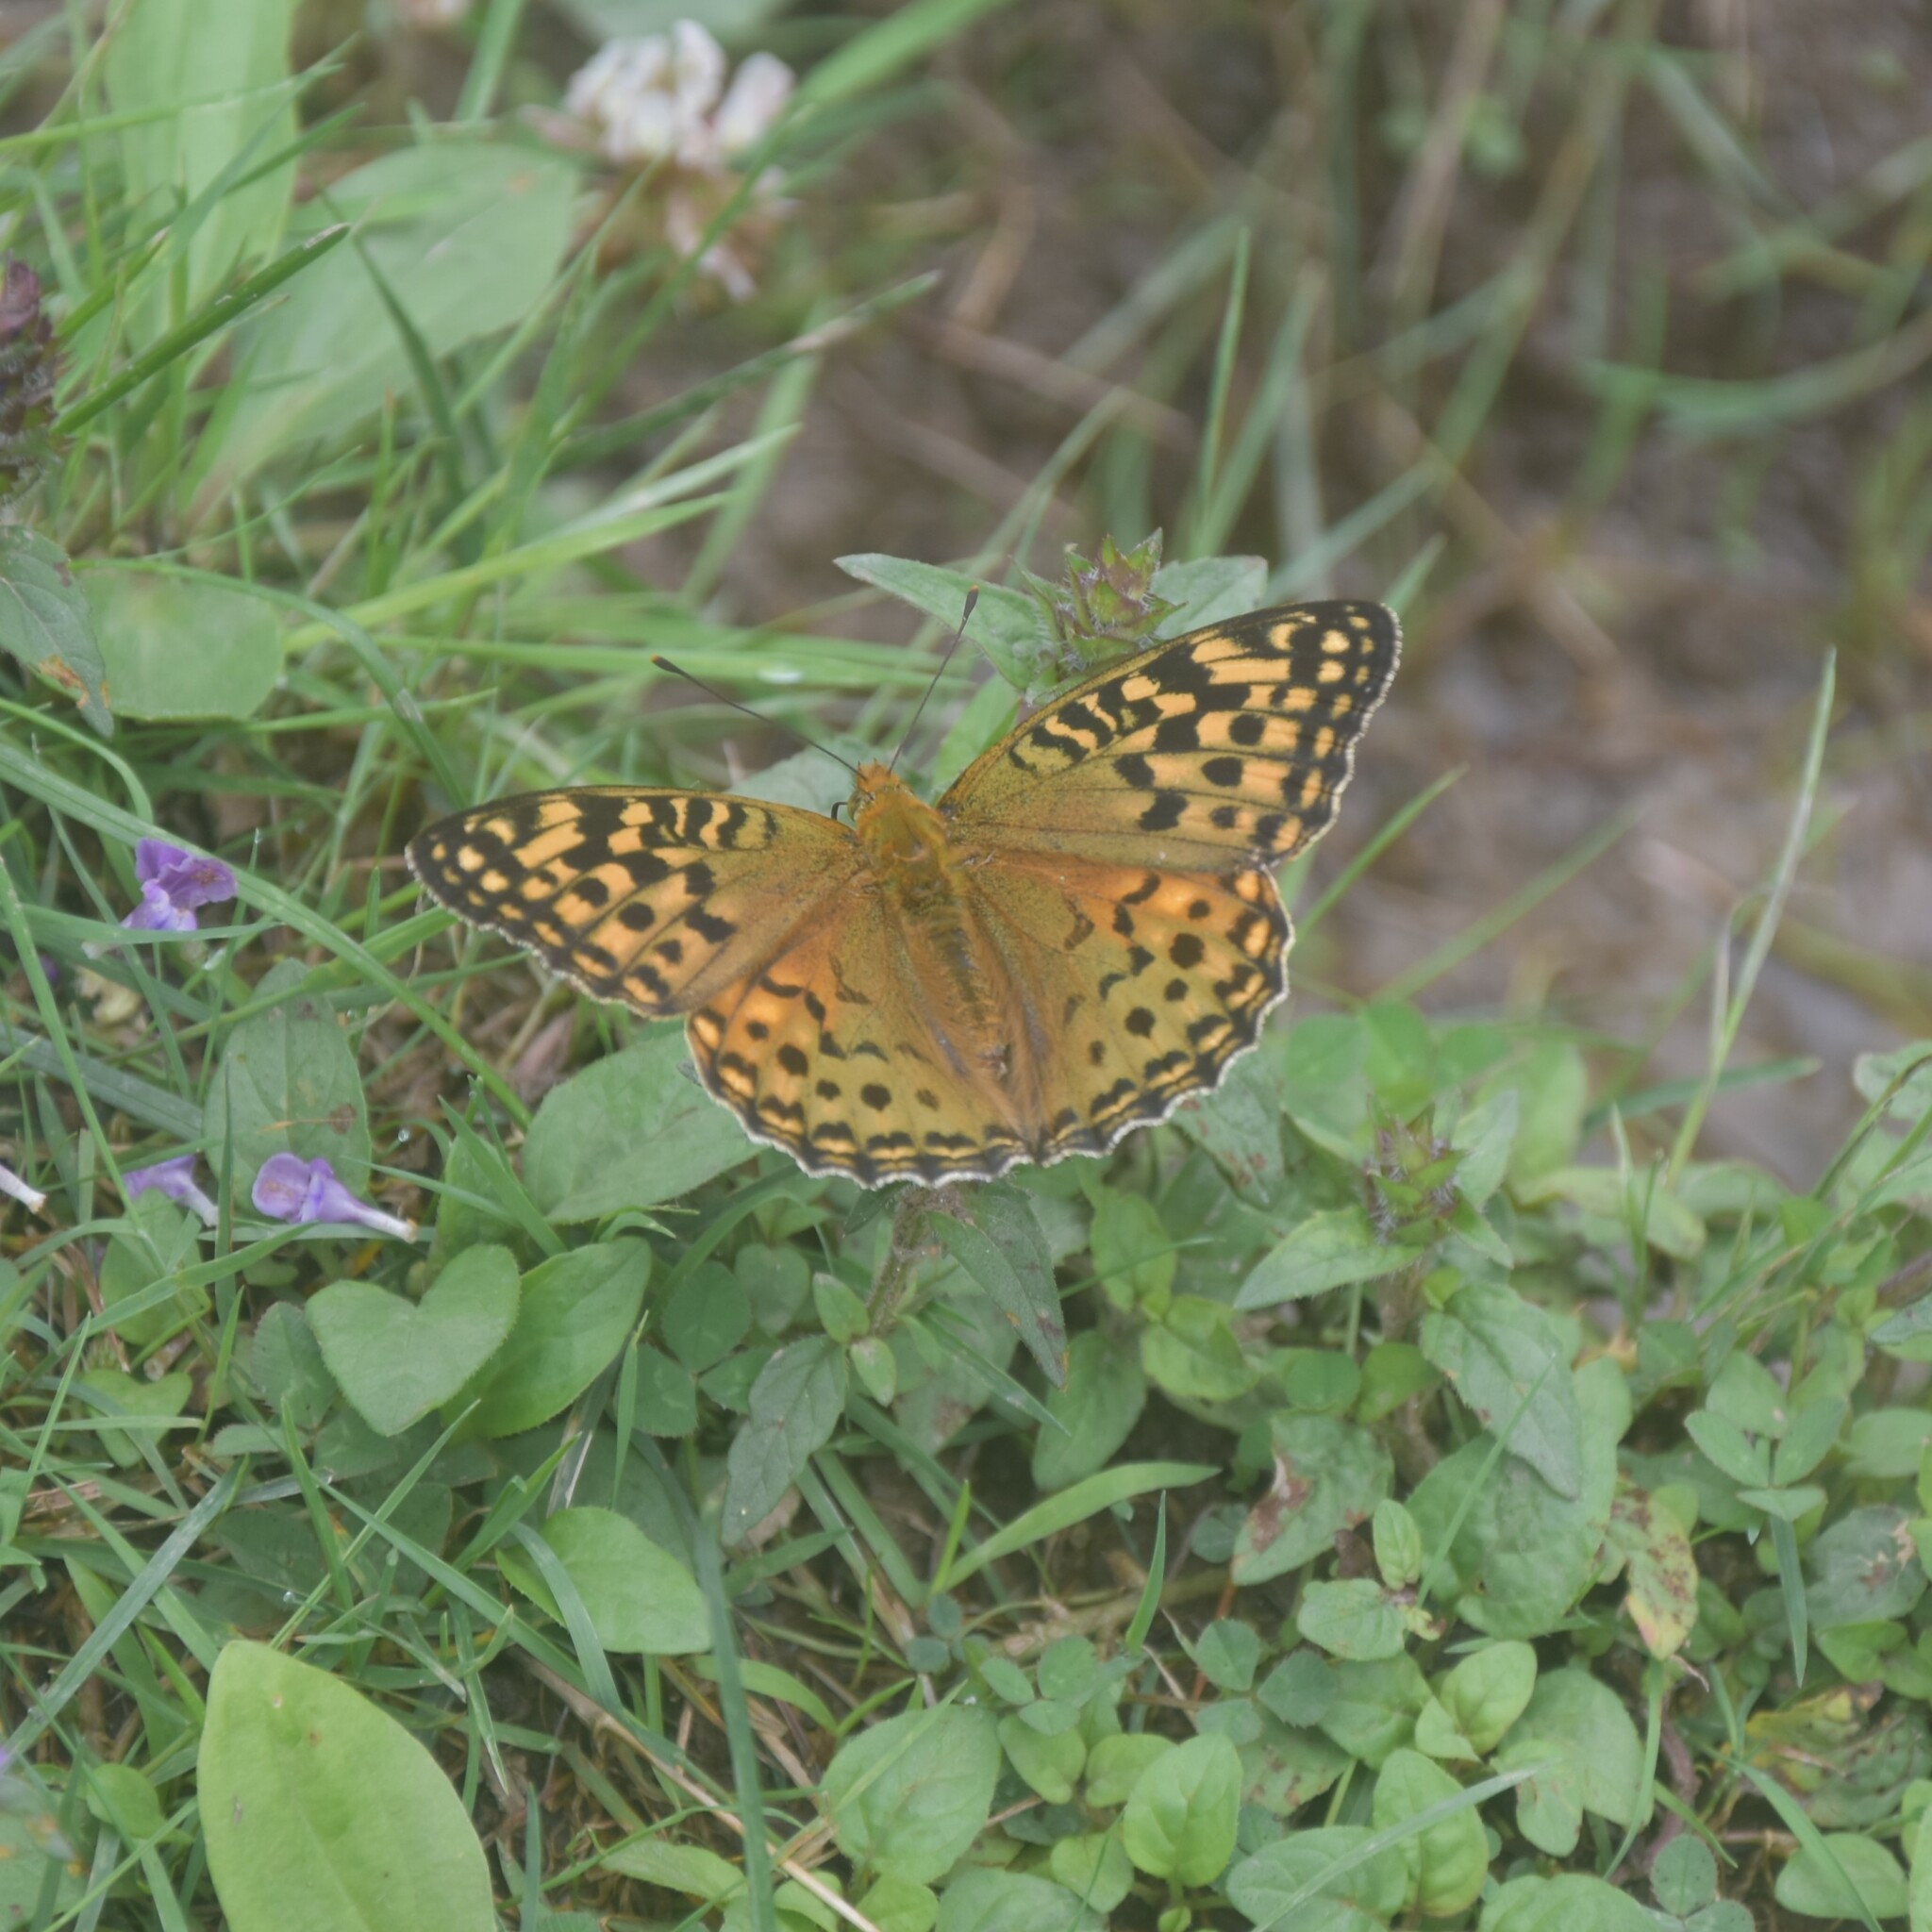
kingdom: Animalia
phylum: Arthropoda
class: Insecta
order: Lepidoptera
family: Nymphalidae
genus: Fabriciana
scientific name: Fabriciana kamala
